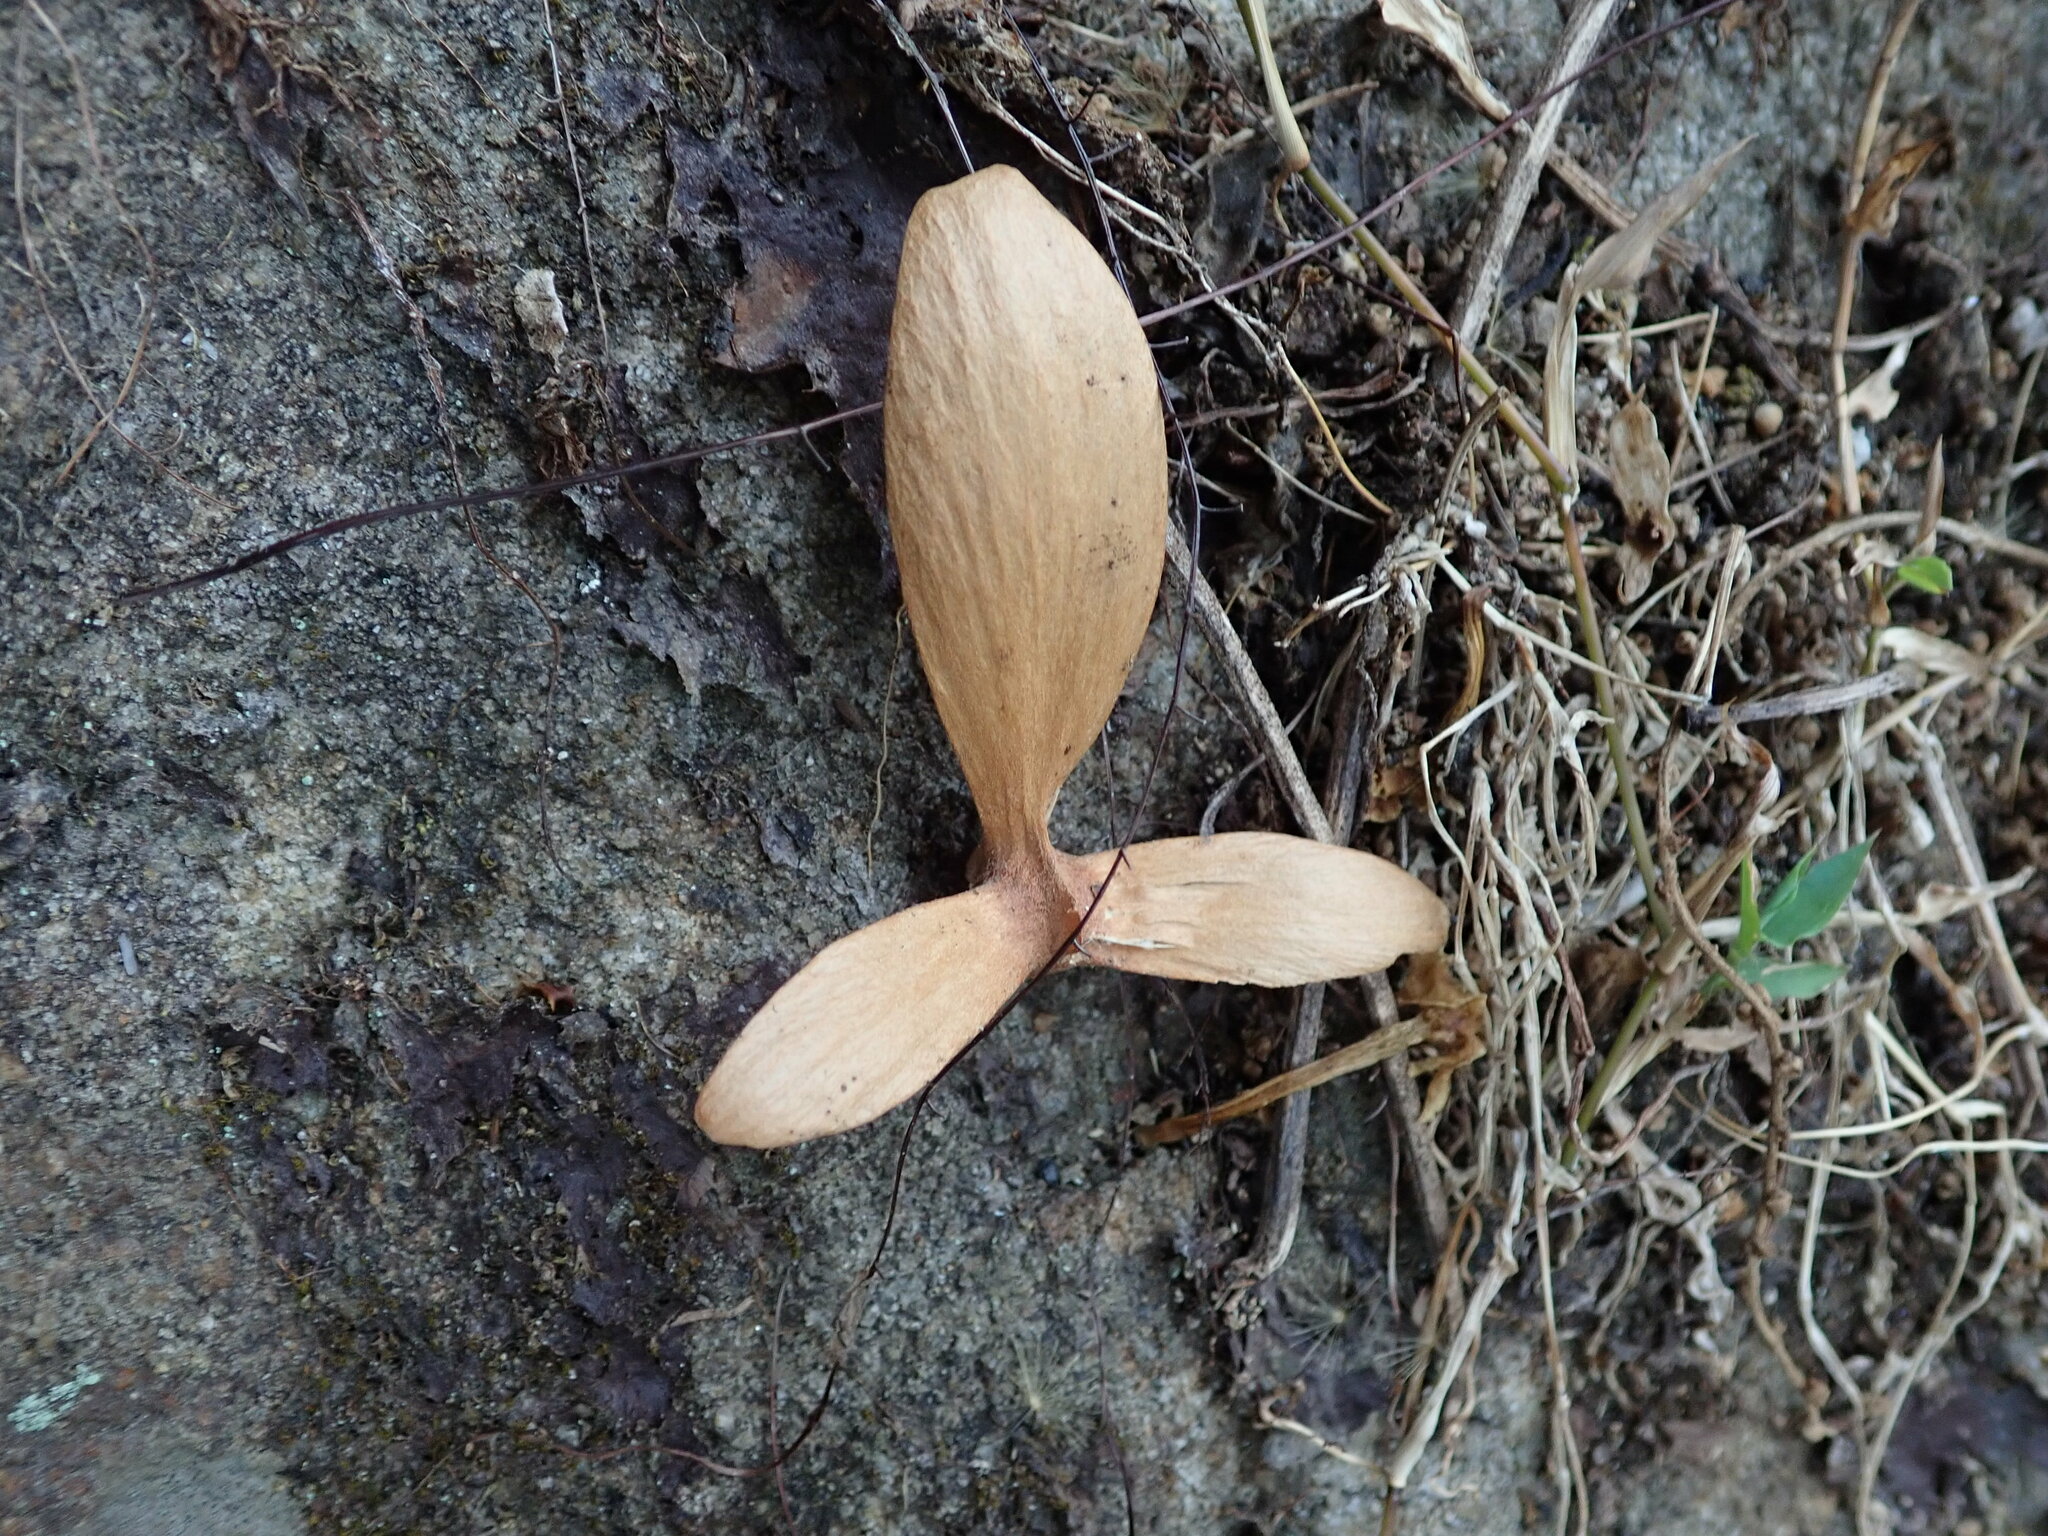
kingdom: Plantae
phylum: Tracheophyta
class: Magnoliopsida
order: Malpighiales
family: Malpighiaceae
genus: Hiptage
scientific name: Hiptage benghalensis
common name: Hiptage
